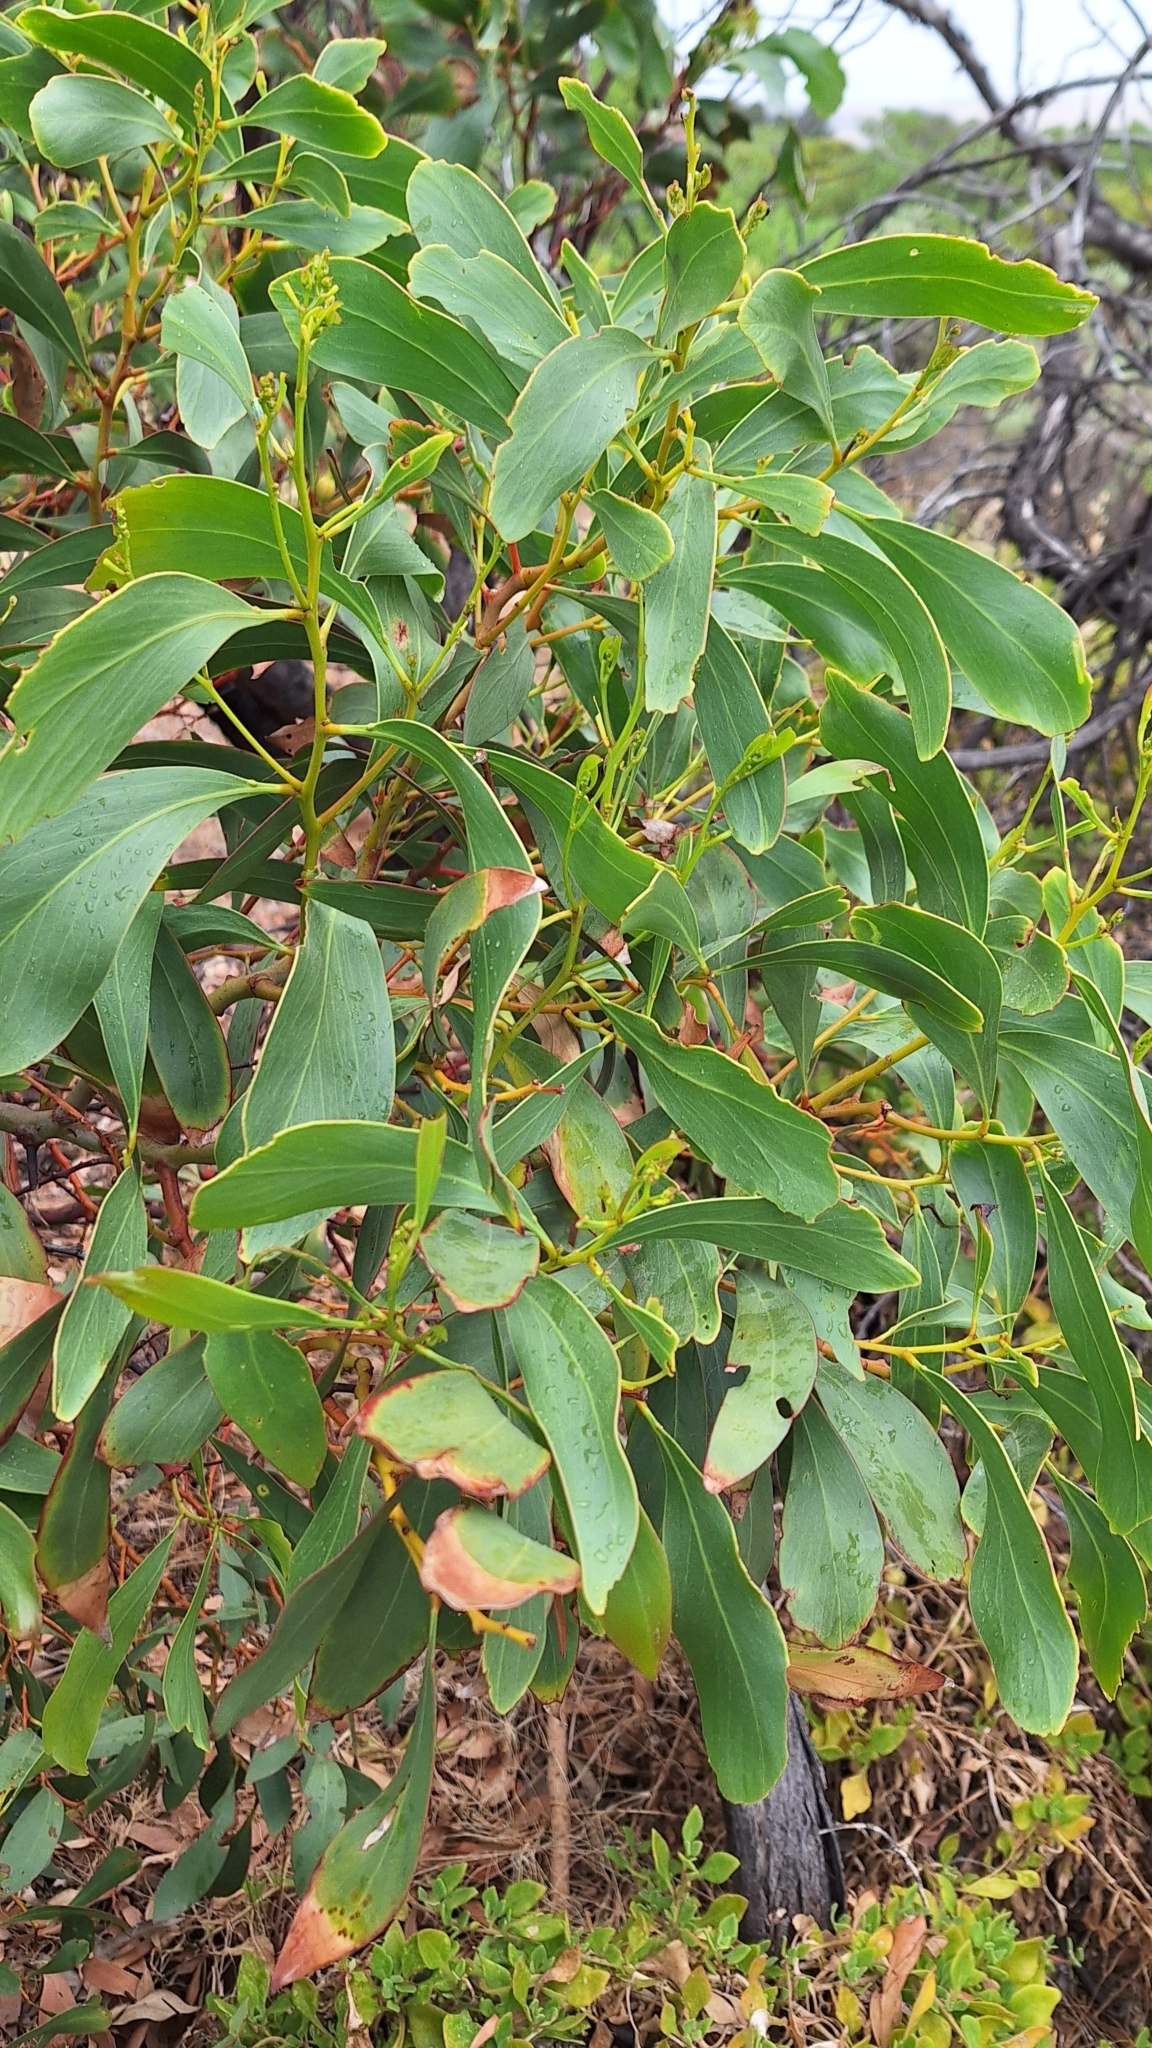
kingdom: Plantae
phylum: Tracheophyta
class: Magnoliopsida
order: Fabales
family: Fabaceae
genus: Acacia
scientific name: Acacia pycnantha
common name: Golden wattle
